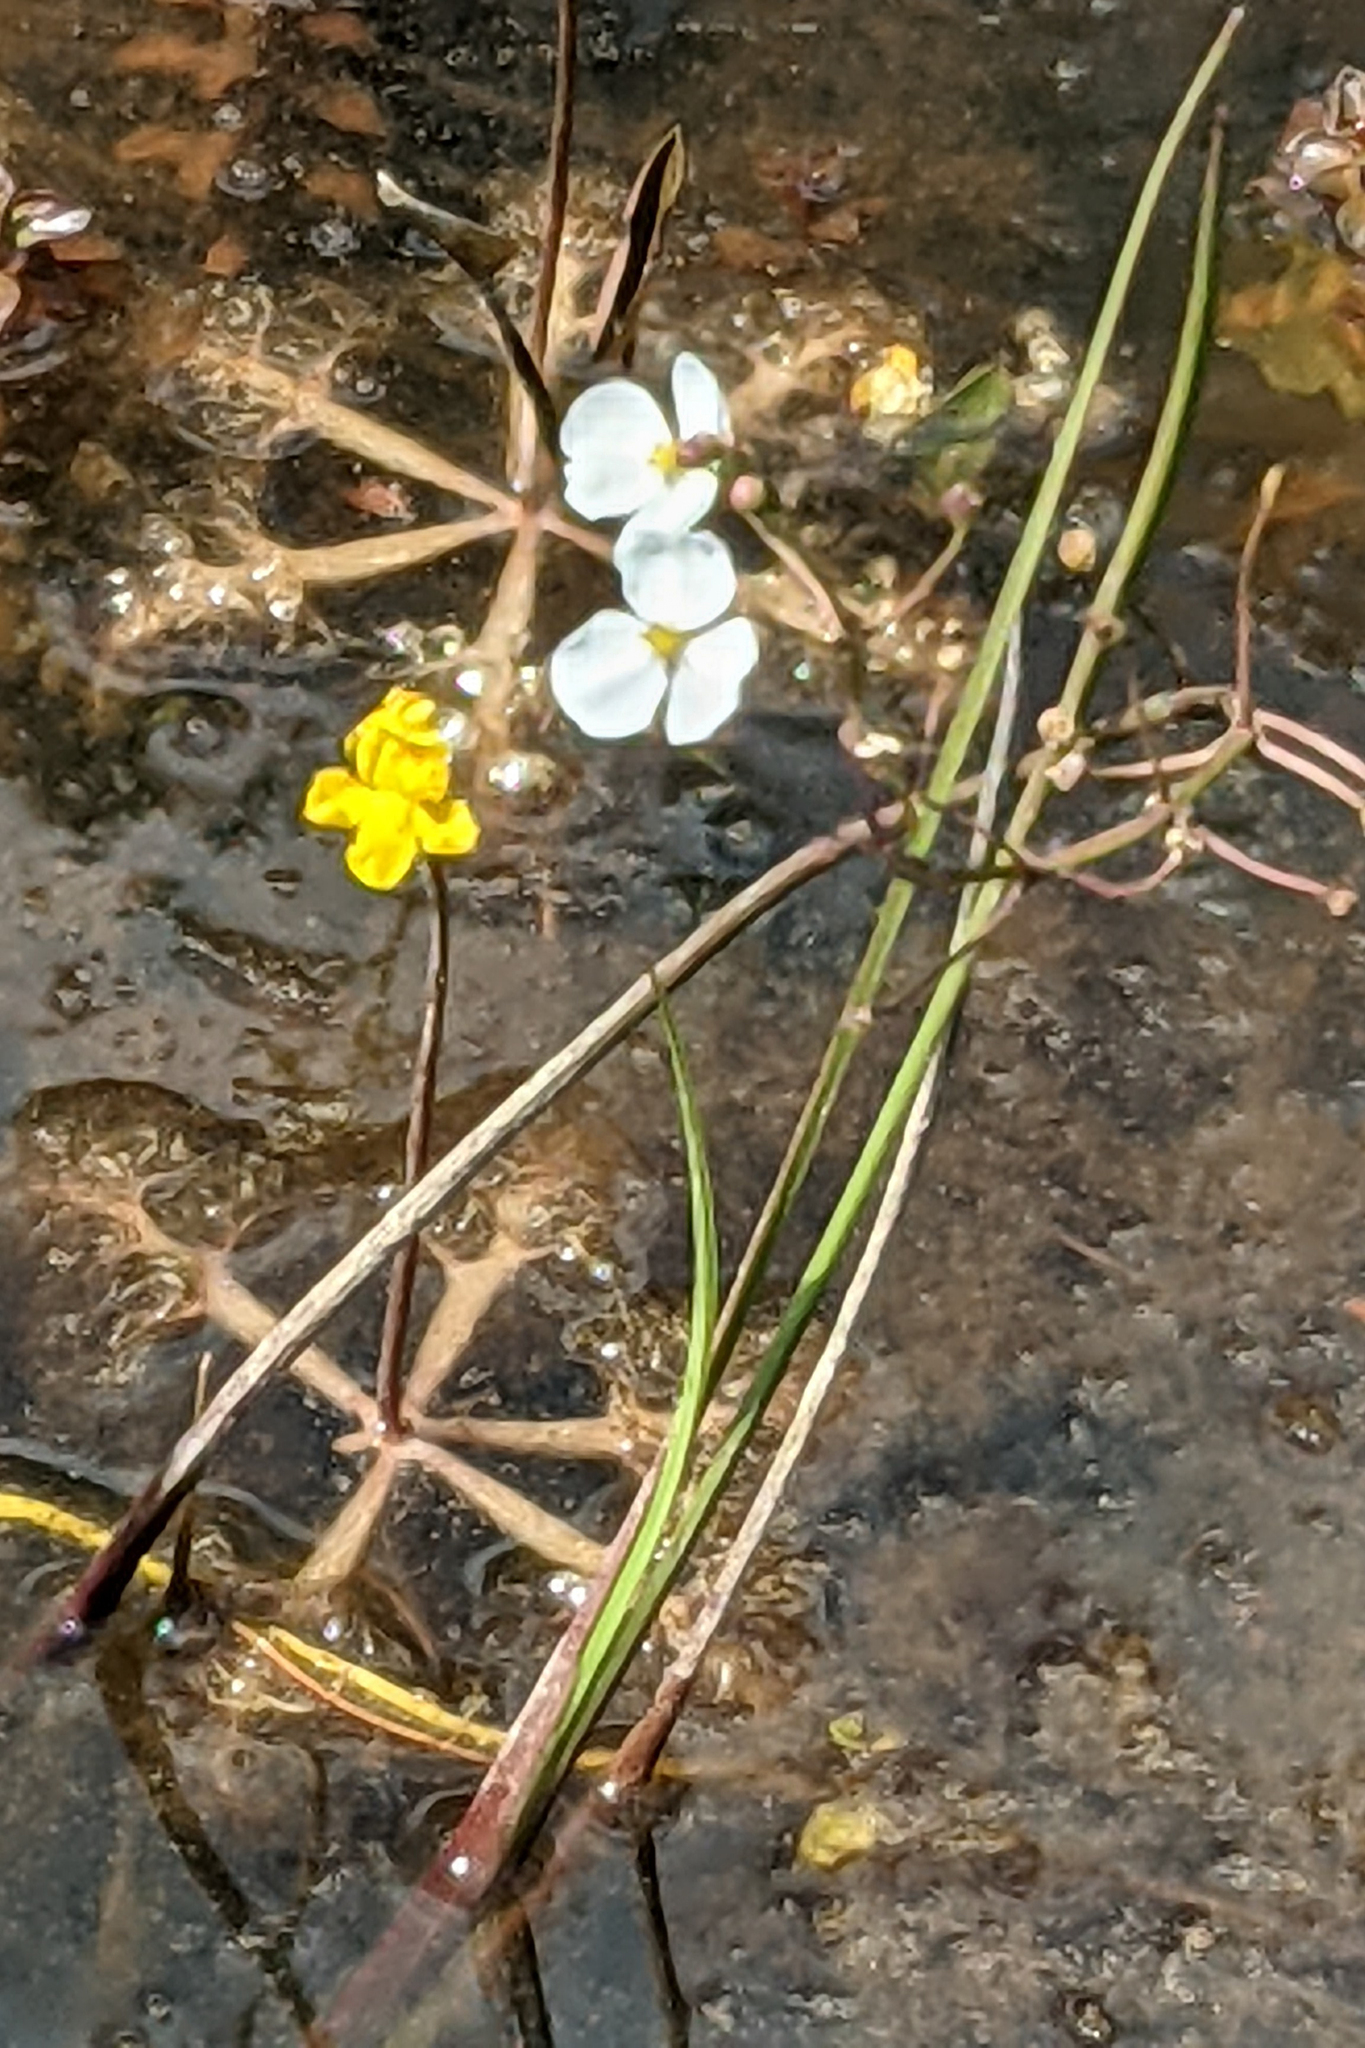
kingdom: Plantae
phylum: Tracheophyta
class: Liliopsida
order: Alismatales
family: Alismataceae
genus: Sagittaria
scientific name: Sagittaria graminea
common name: Grass-leaved arrowhead
